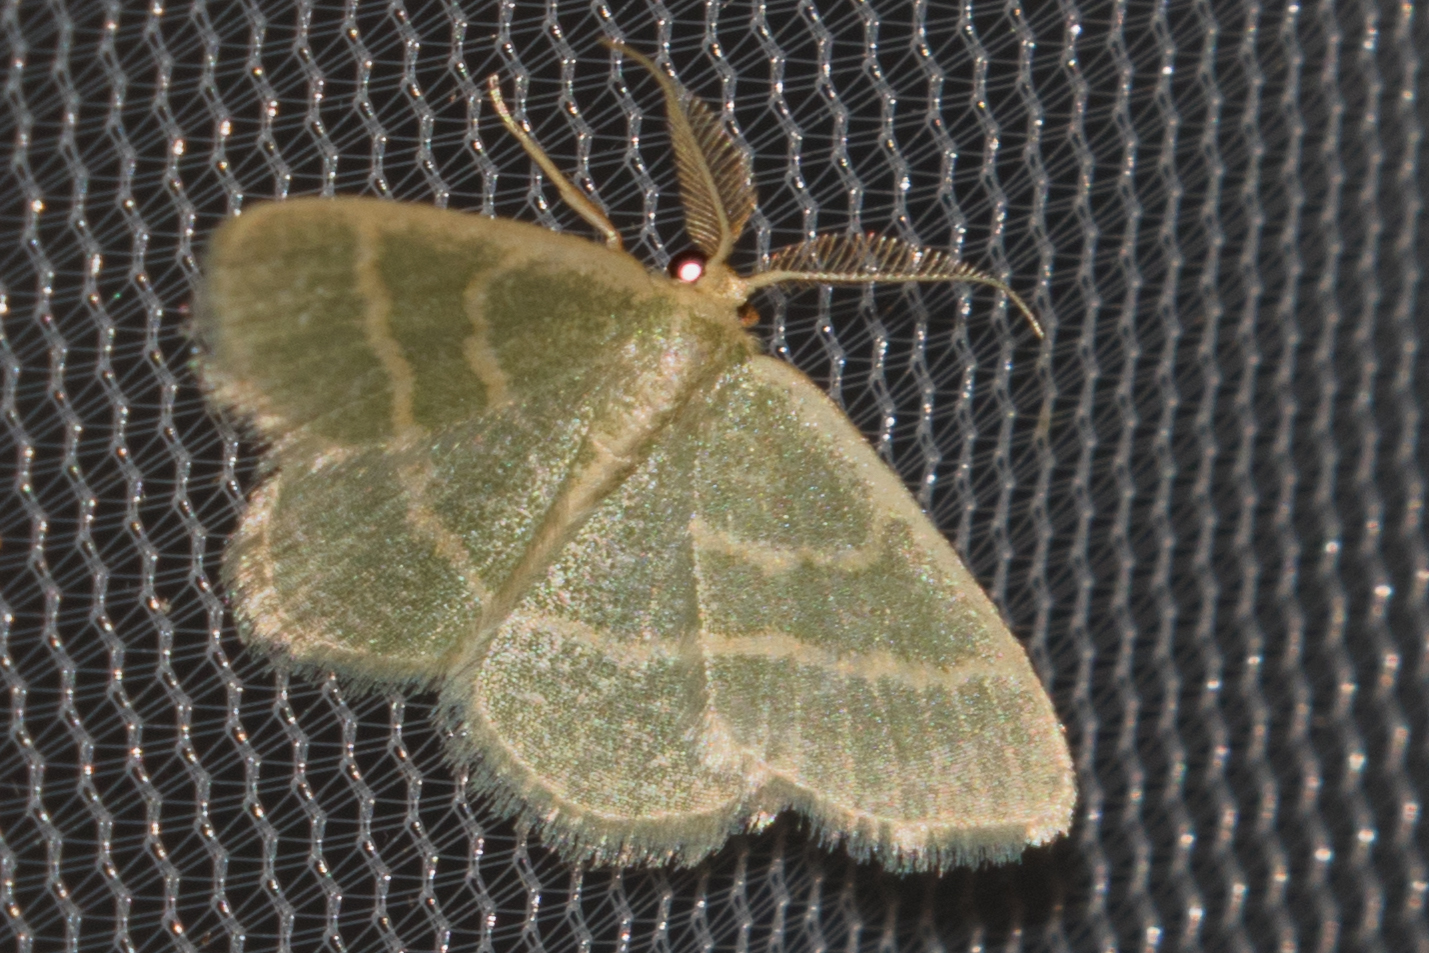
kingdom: Animalia
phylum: Arthropoda
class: Insecta
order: Lepidoptera
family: Geometridae
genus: Chlorochlamys
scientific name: Chlorochlamys chloroleucaria
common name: Blackberry looper
